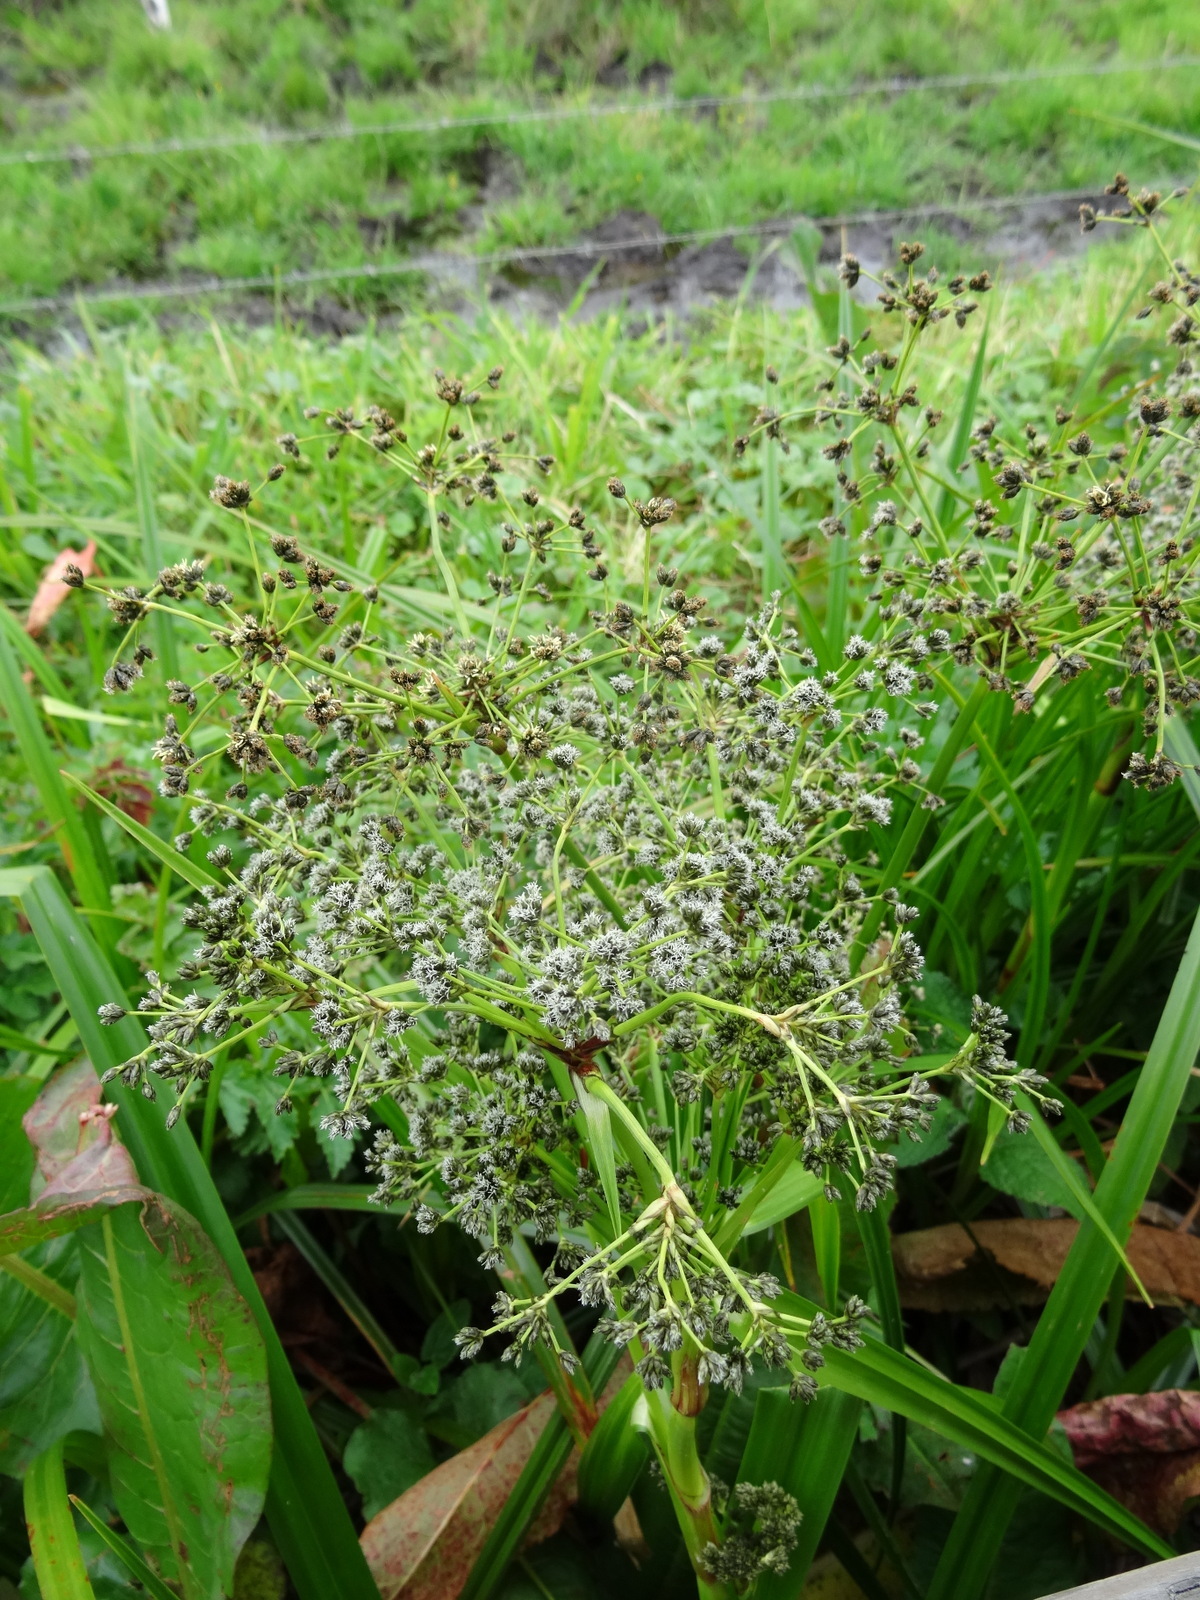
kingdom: Plantae
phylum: Tracheophyta
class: Liliopsida
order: Poales
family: Cyperaceae
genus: Scirpus
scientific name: Scirpus microcarpus
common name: Panicled bulrush
